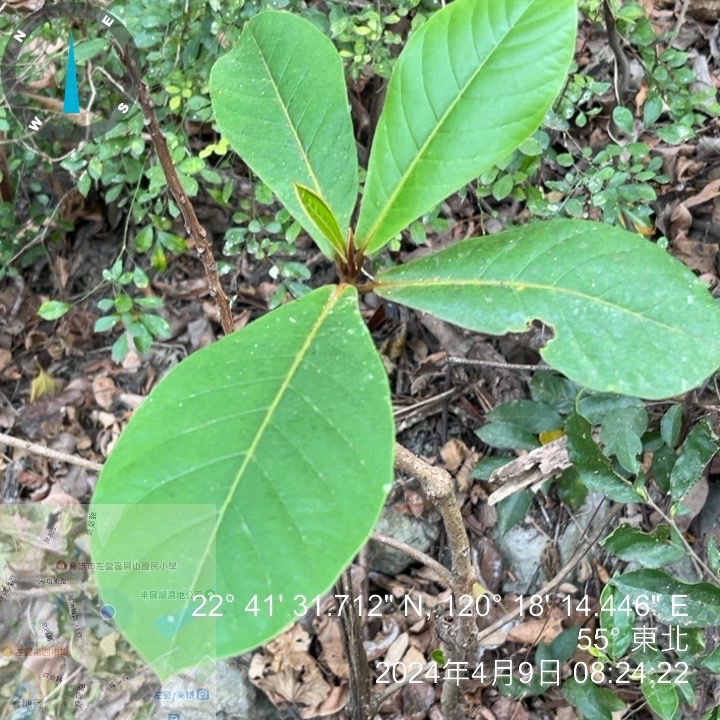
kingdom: Plantae
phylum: Tracheophyta
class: Magnoliopsida
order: Myrtales
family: Combretaceae
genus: Terminalia
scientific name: Terminalia catappa
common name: Tropical almond
